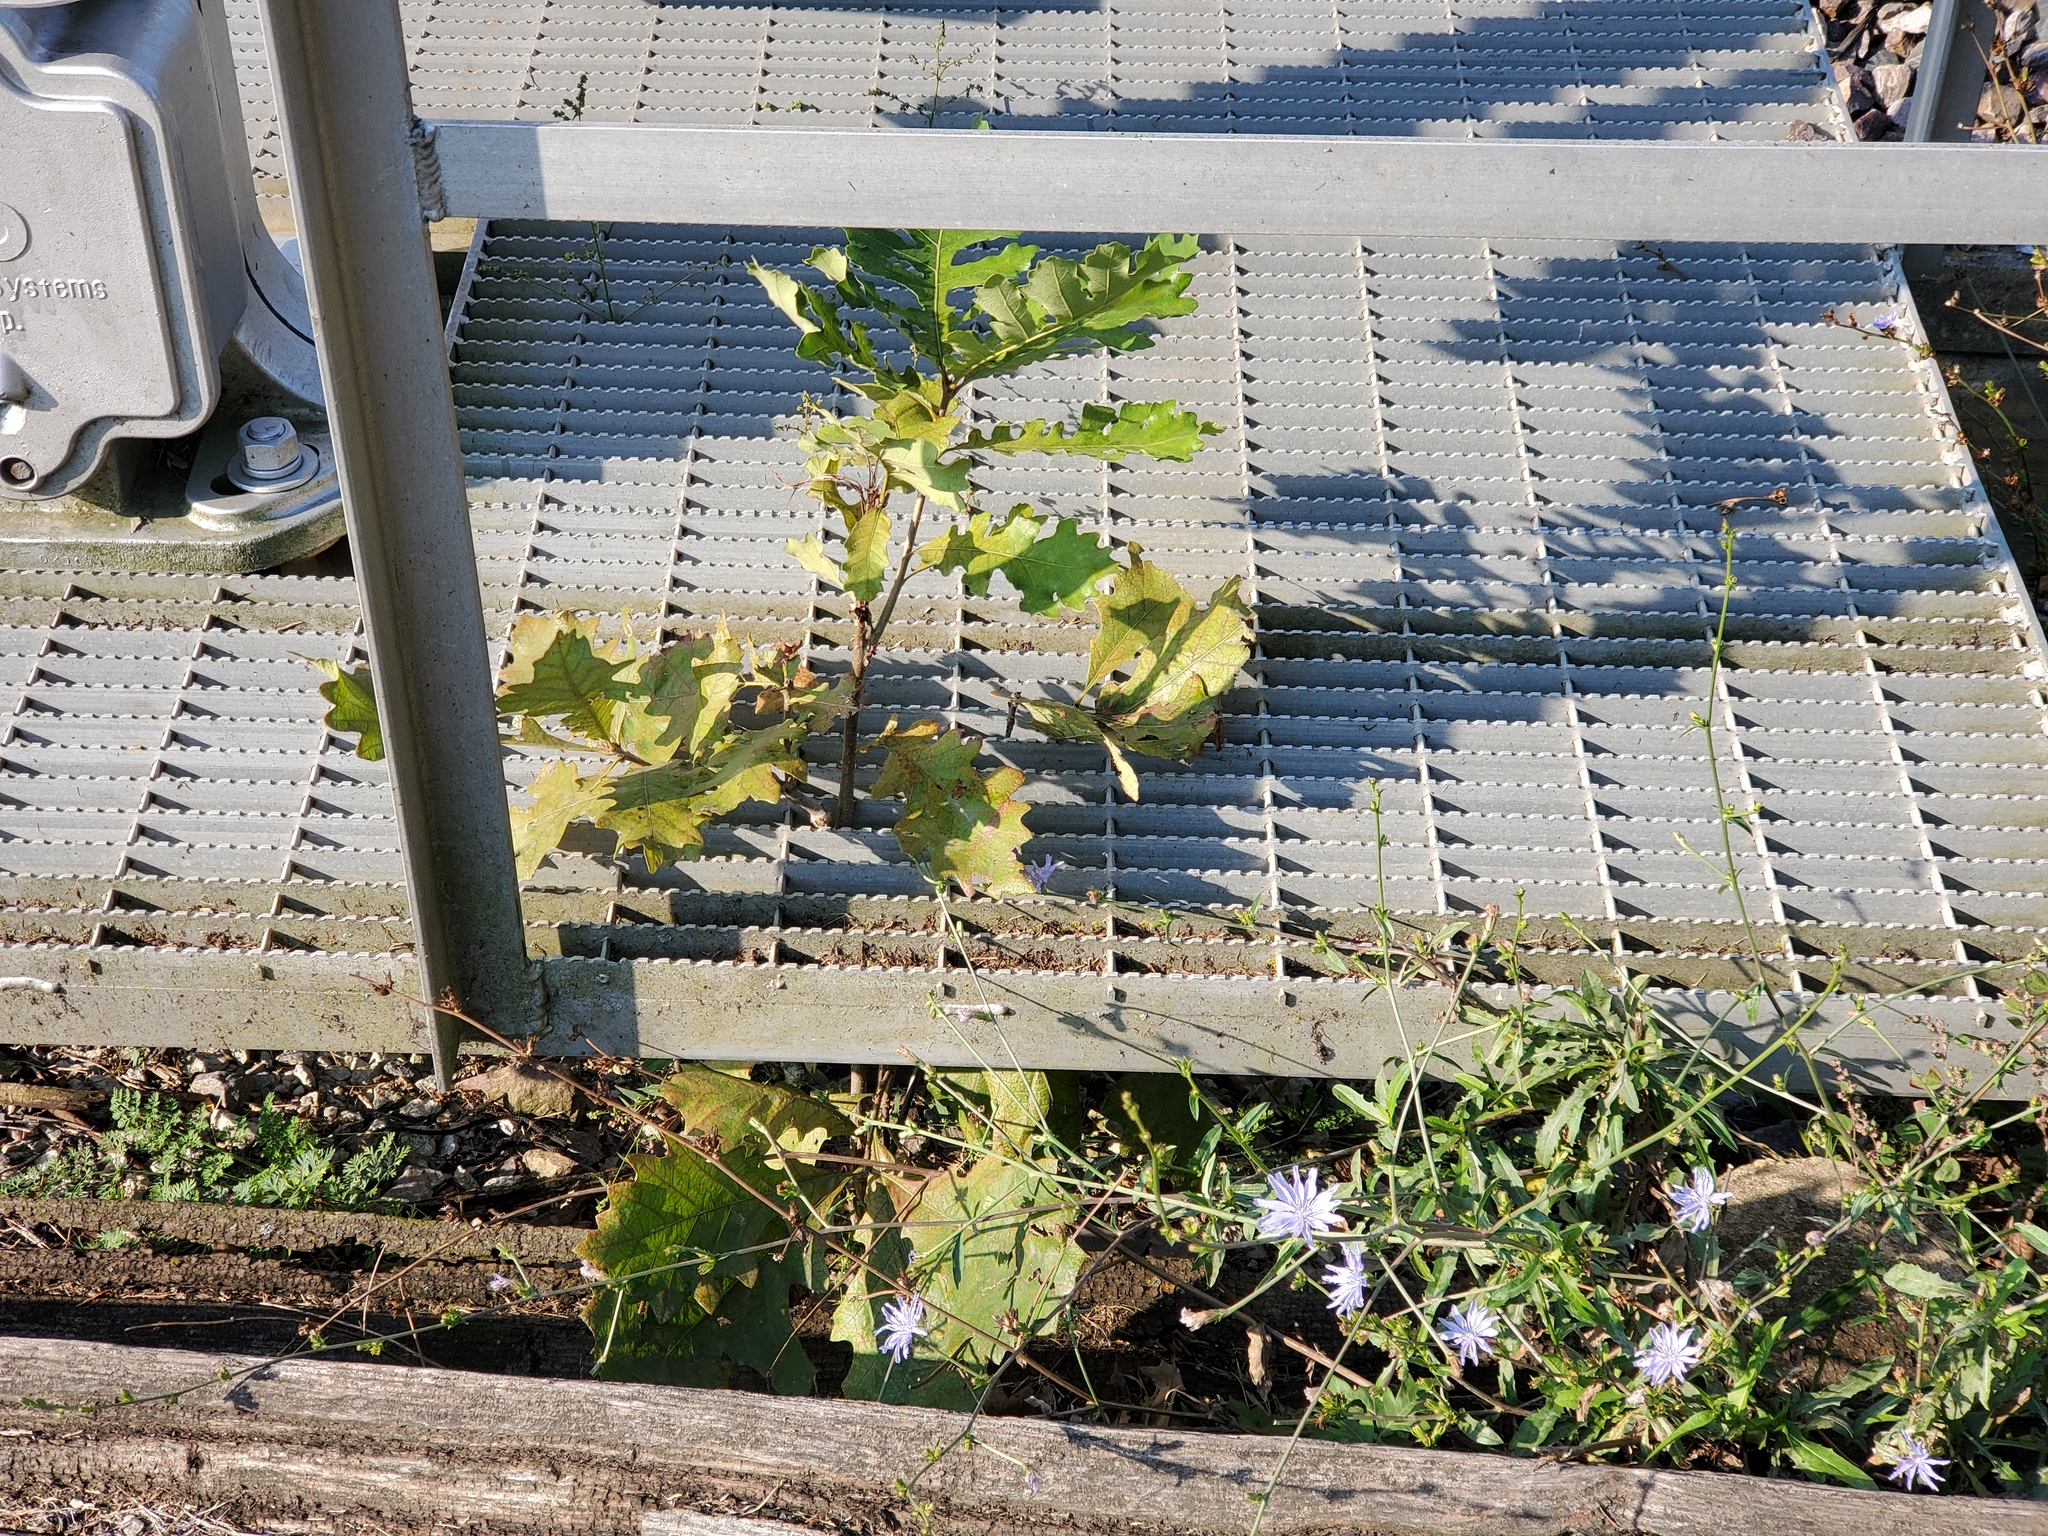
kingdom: Plantae
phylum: Tracheophyta
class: Magnoliopsida
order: Asterales
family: Asteraceae
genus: Cichorium
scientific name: Cichorium intybus
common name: Chicory
